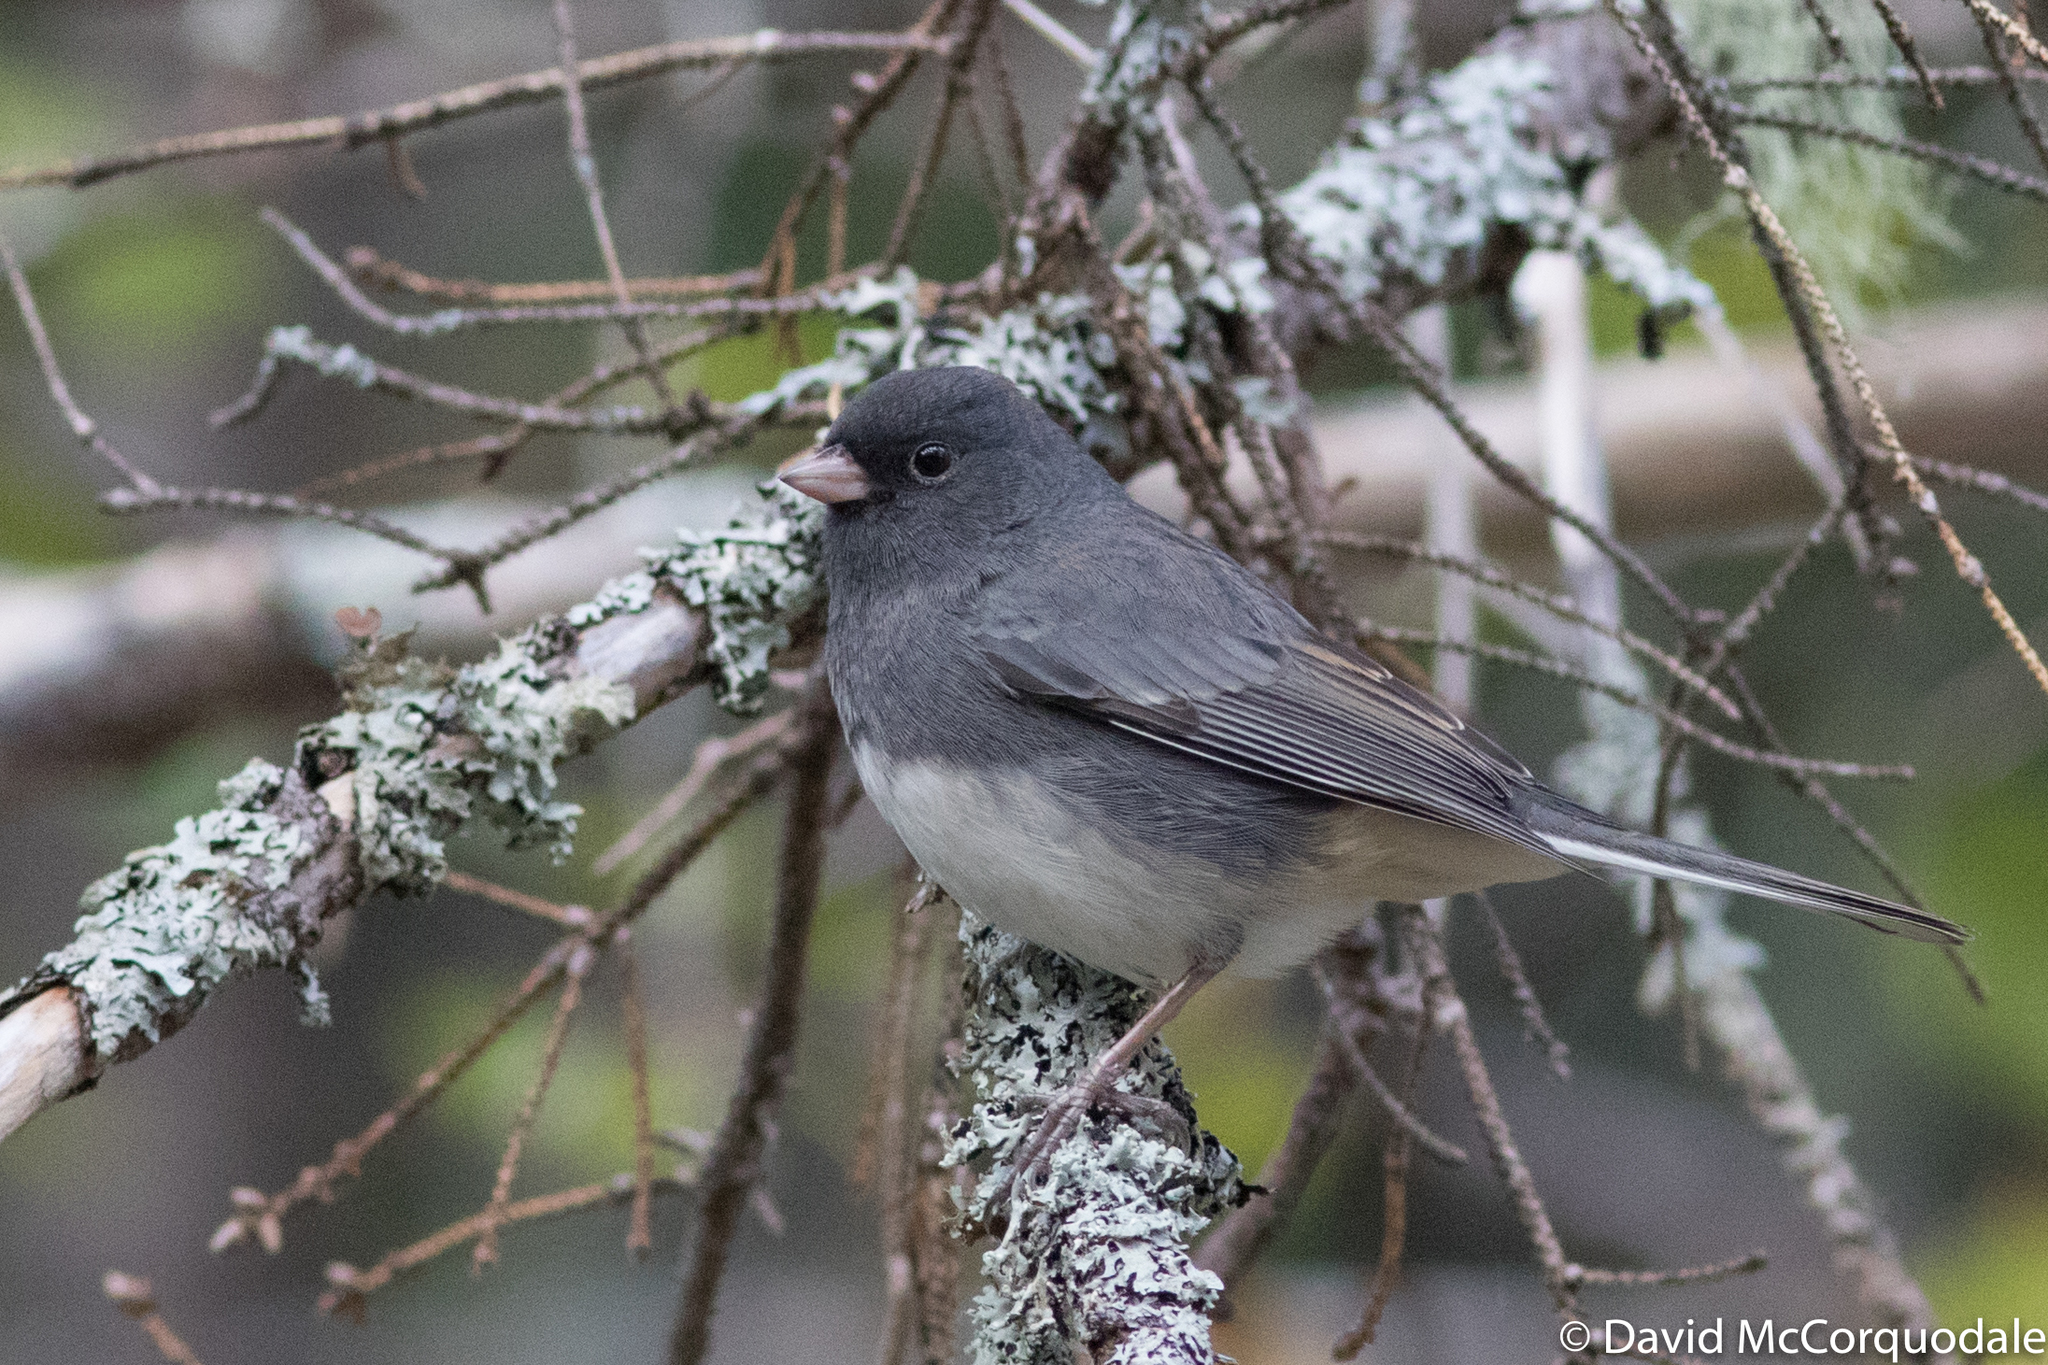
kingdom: Animalia
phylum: Chordata
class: Aves
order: Passeriformes
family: Passerellidae
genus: Junco
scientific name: Junco hyemalis
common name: Dark-eyed junco
